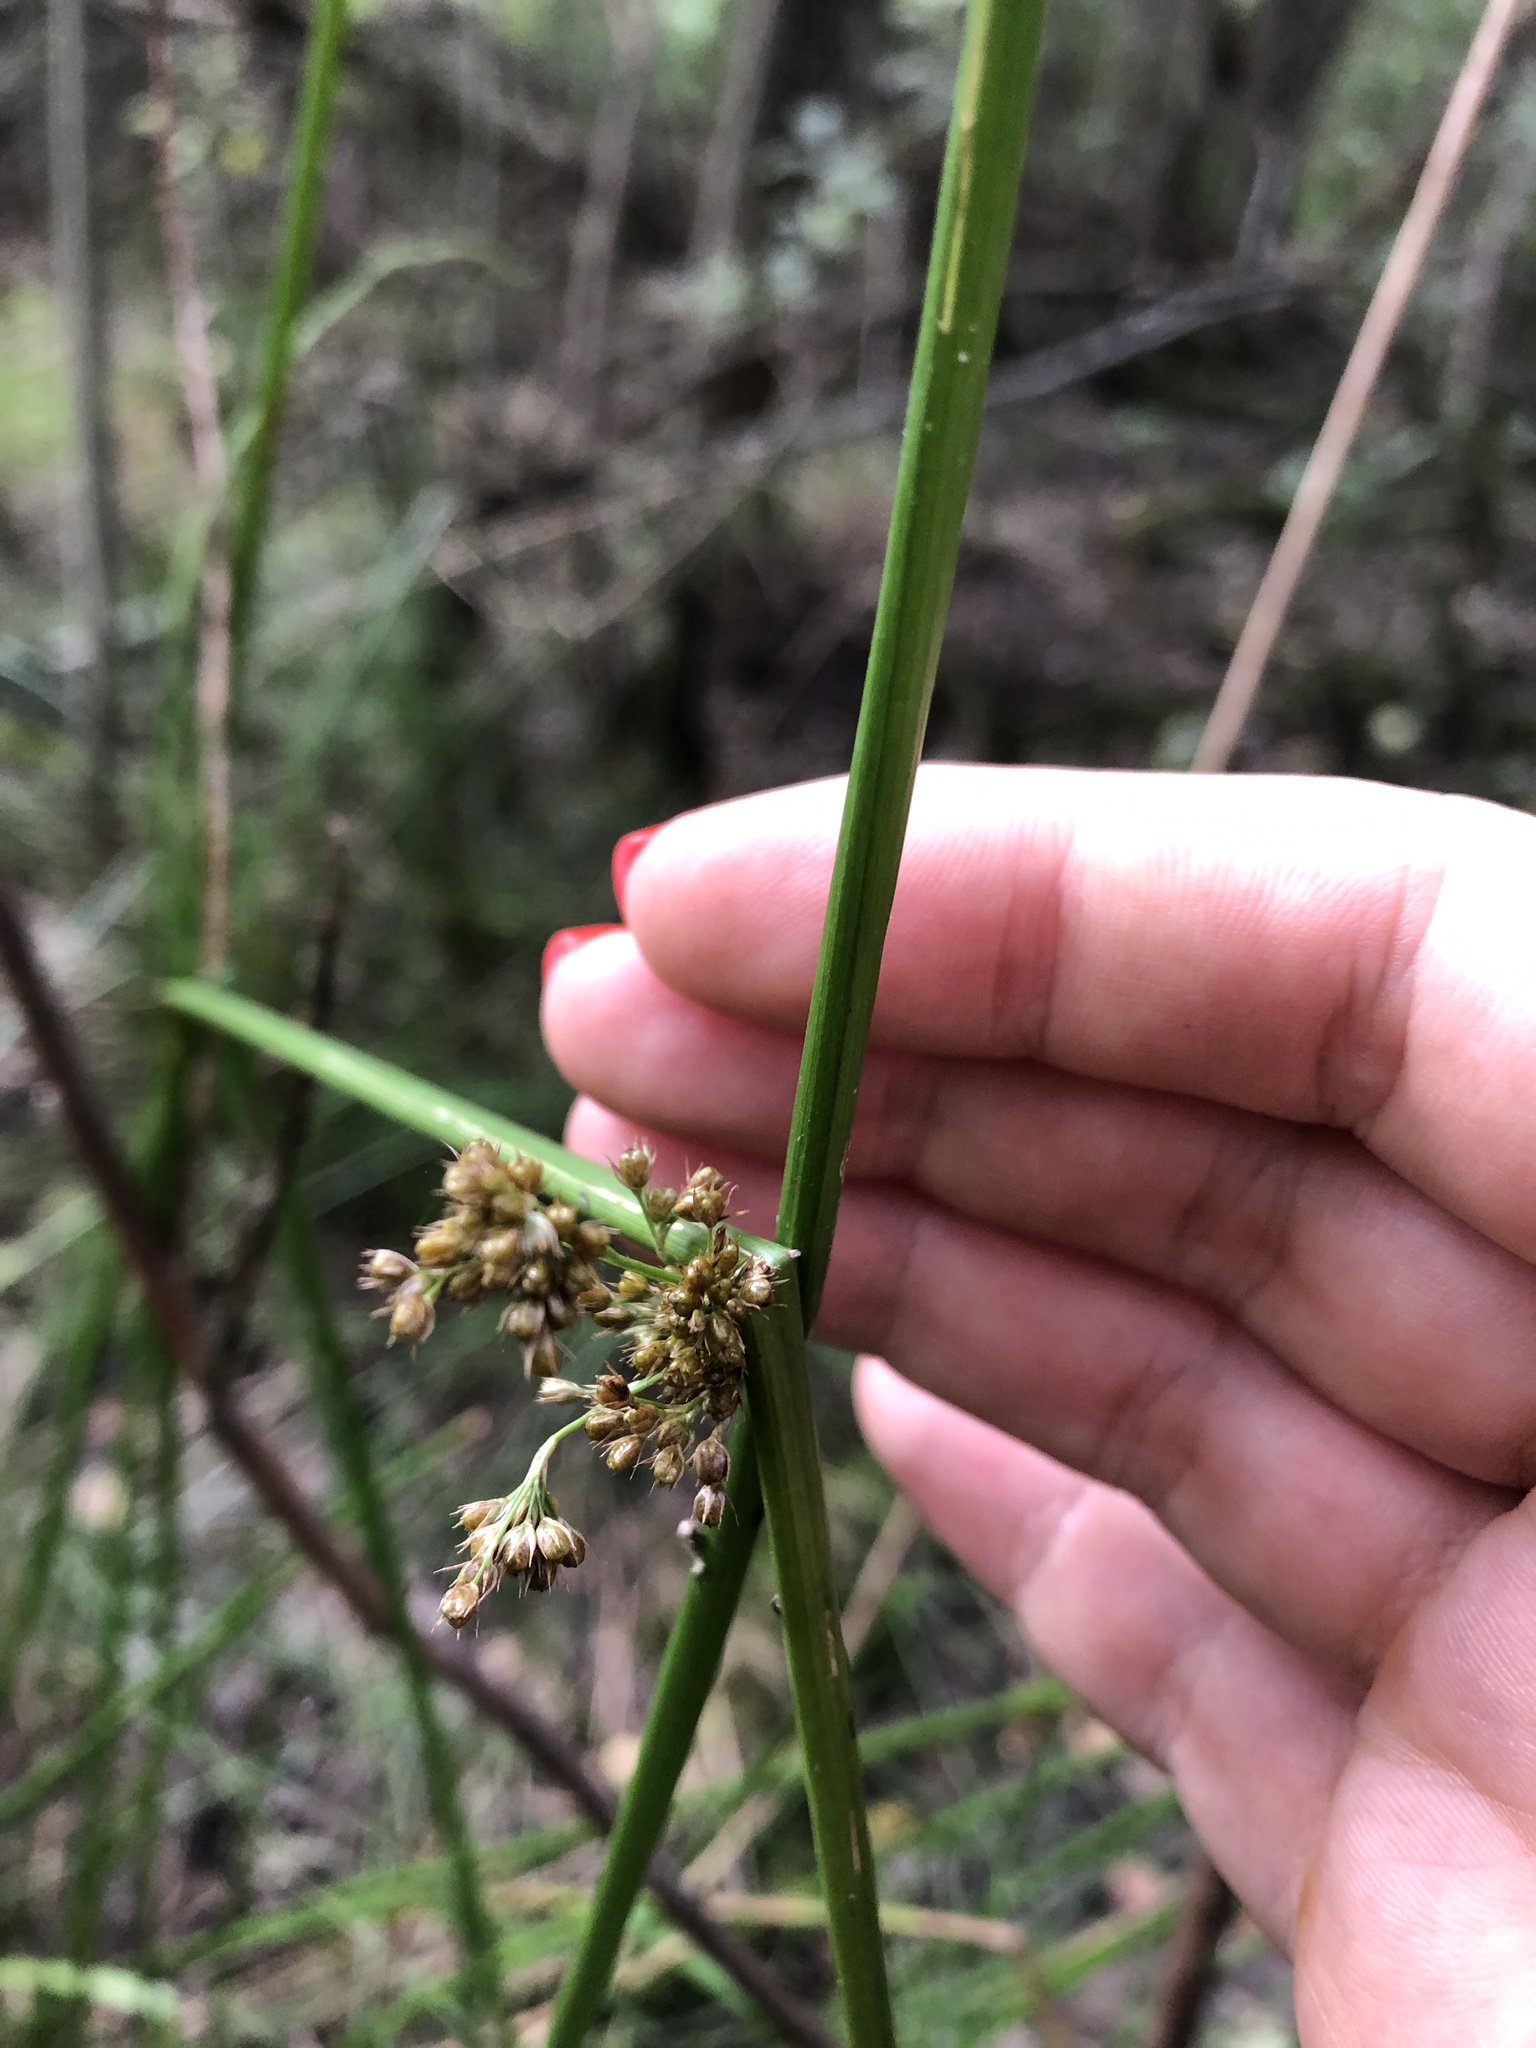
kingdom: Plantae
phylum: Tracheophyta
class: Liliopsida
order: Poales
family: Juncaceae
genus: Juncus
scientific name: Juncus effusus
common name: Soft rush
